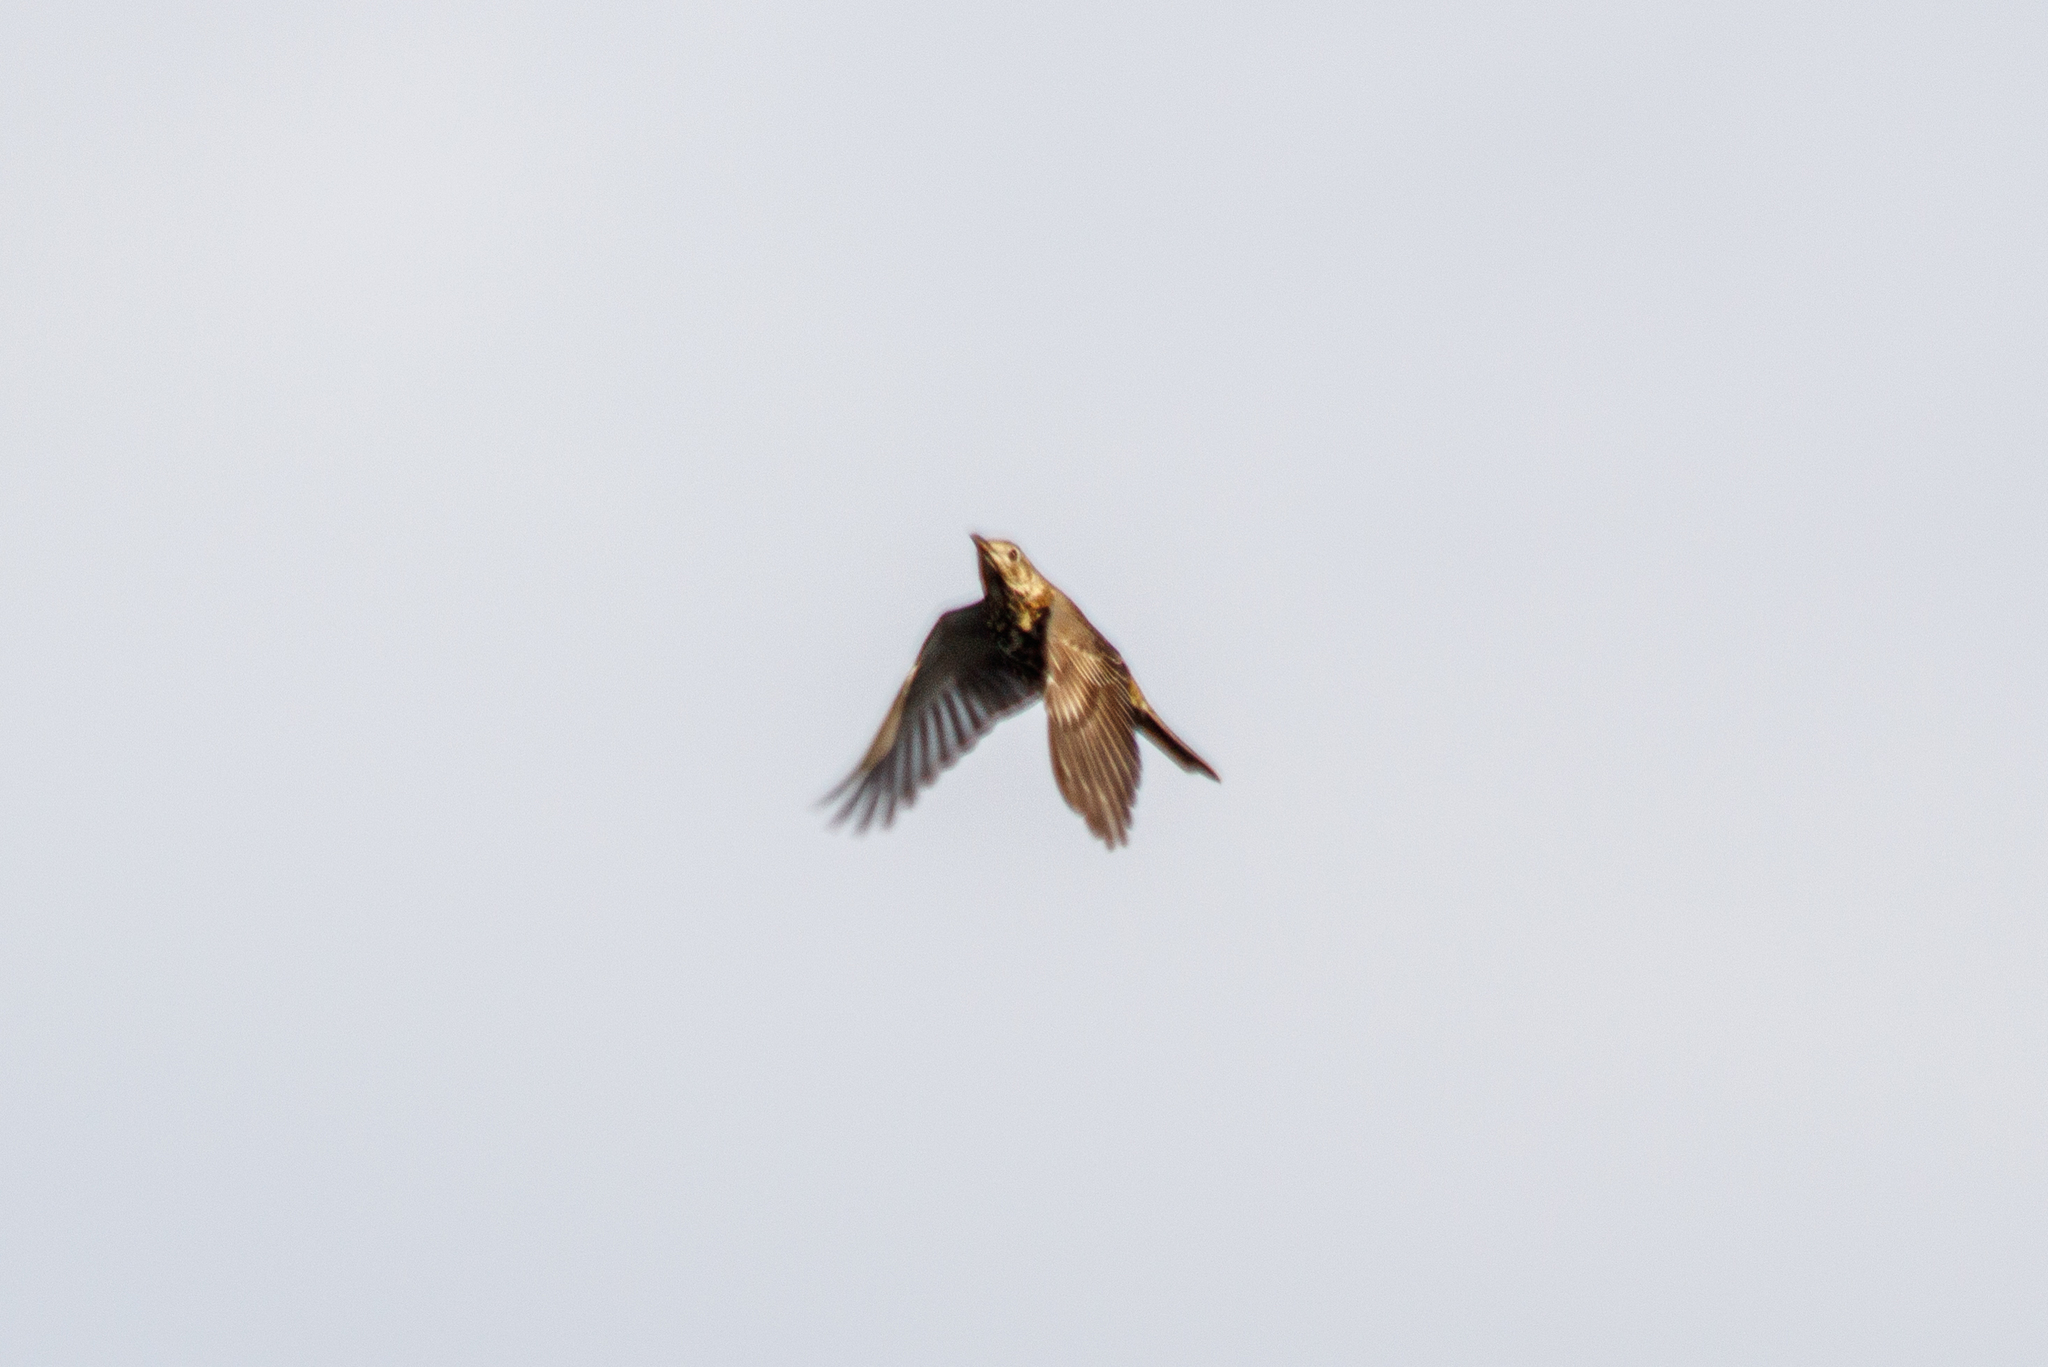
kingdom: Animalia
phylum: Chordata
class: Aves
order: Passeriformes
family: Turdidae
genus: Turdus
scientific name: Turdus viscivorus
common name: Mistle thrush
